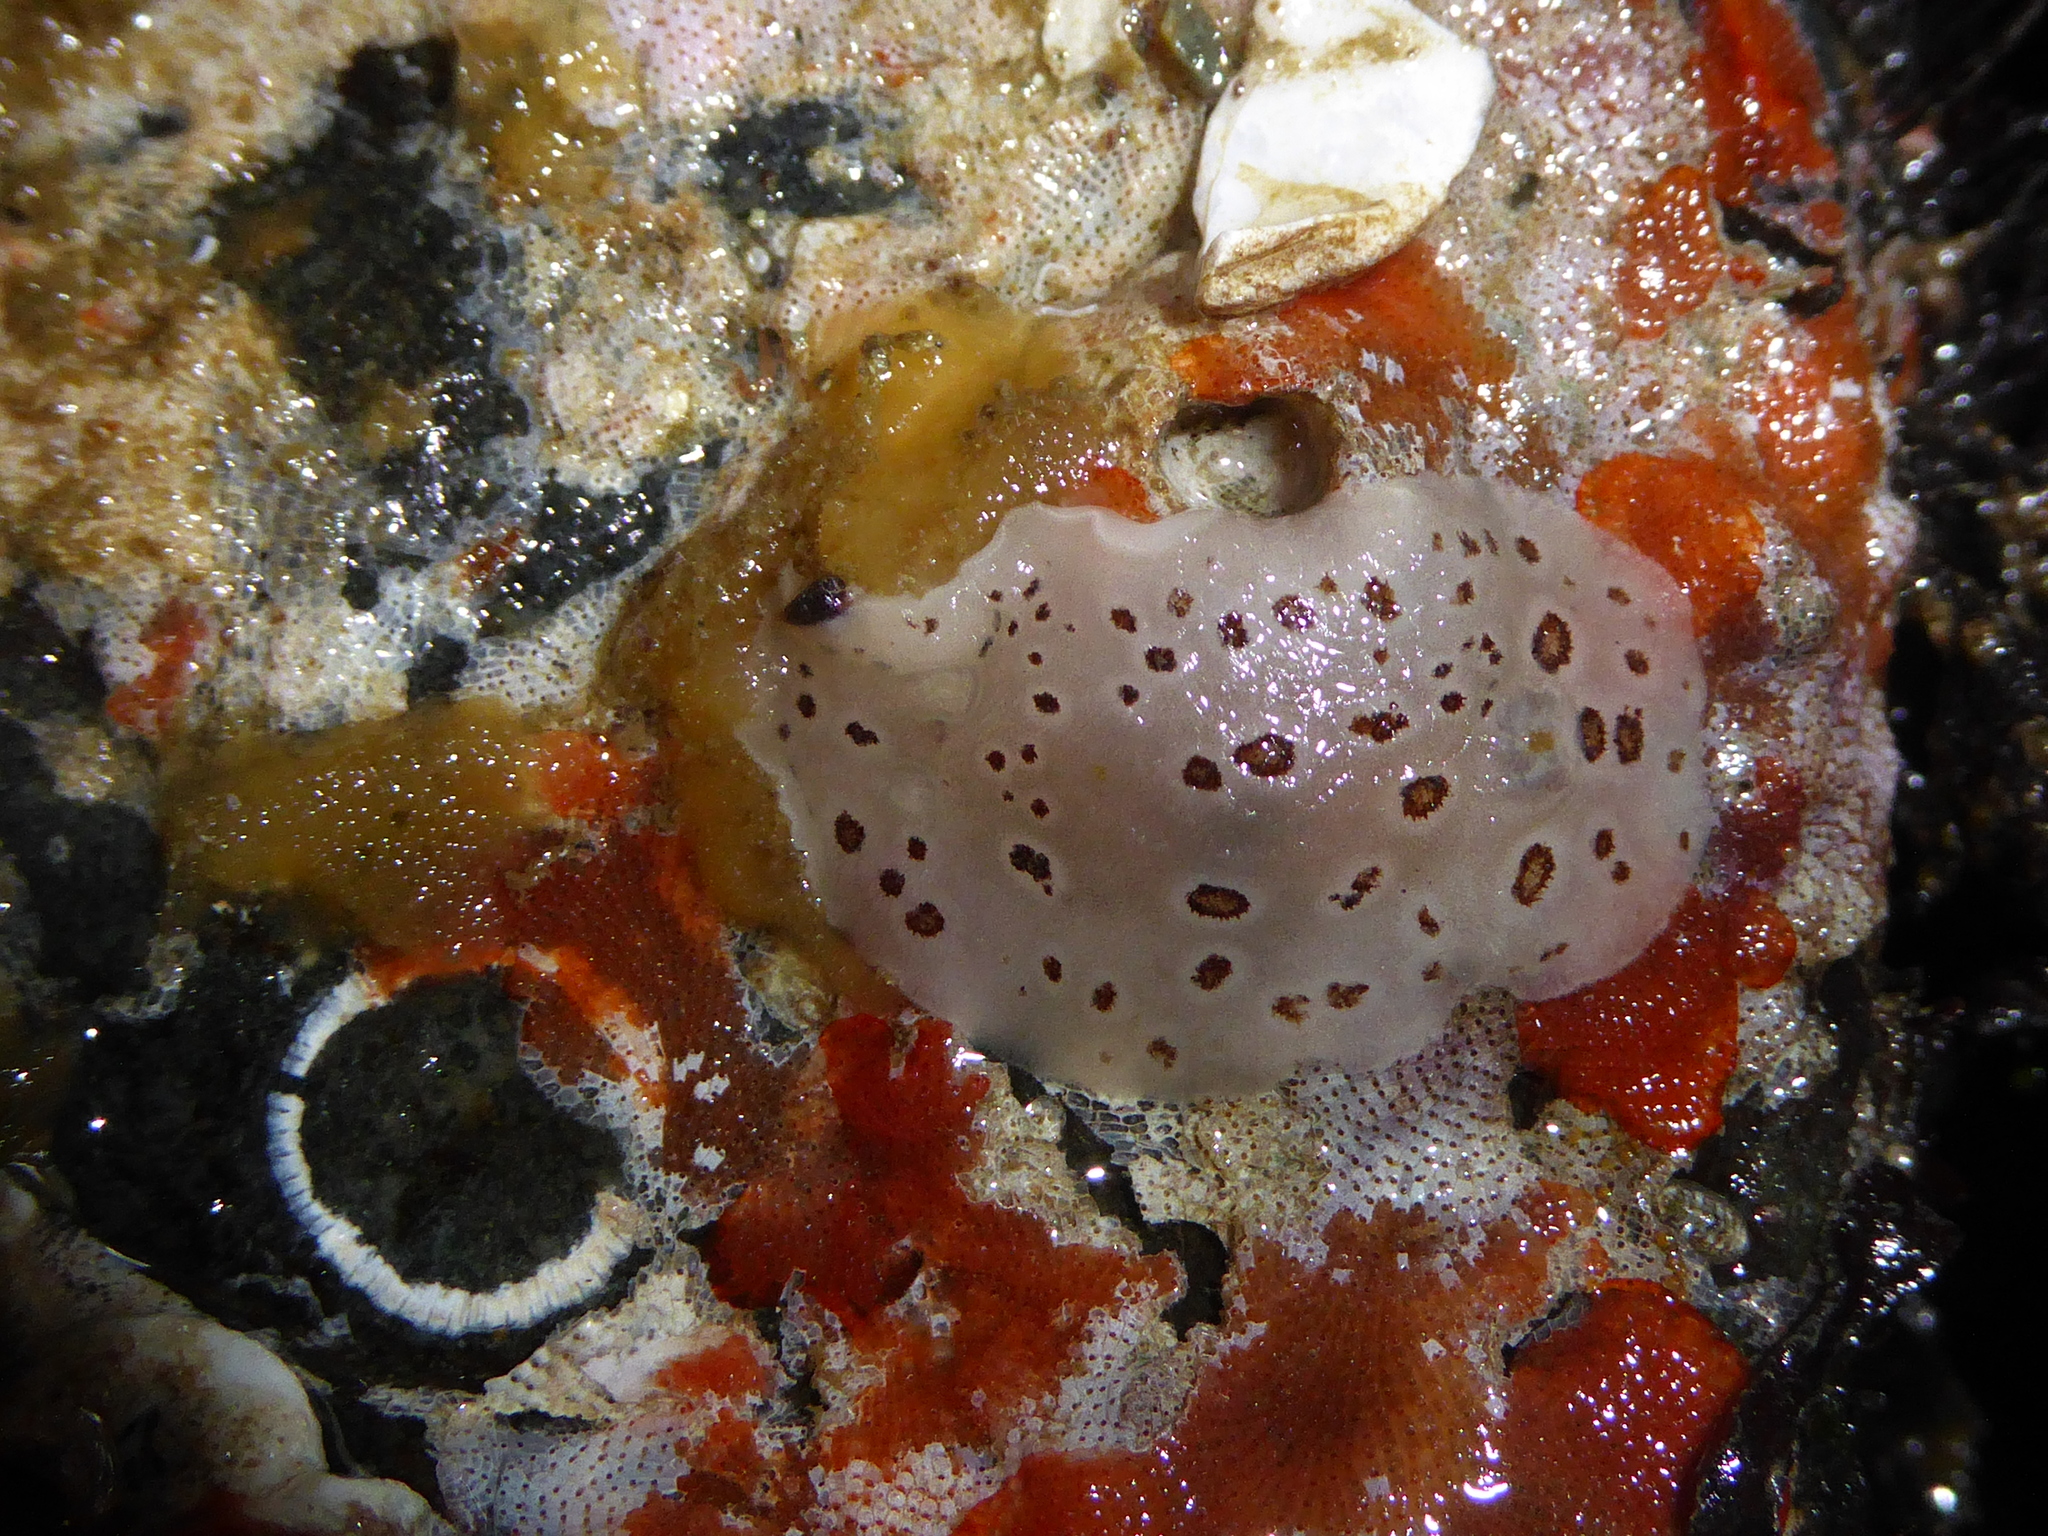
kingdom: Animalia
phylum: Mollusca
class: Gastropoda
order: Nudibranchia
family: Discodorididae
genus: Diaulula
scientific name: Diaulula odonoghuei
